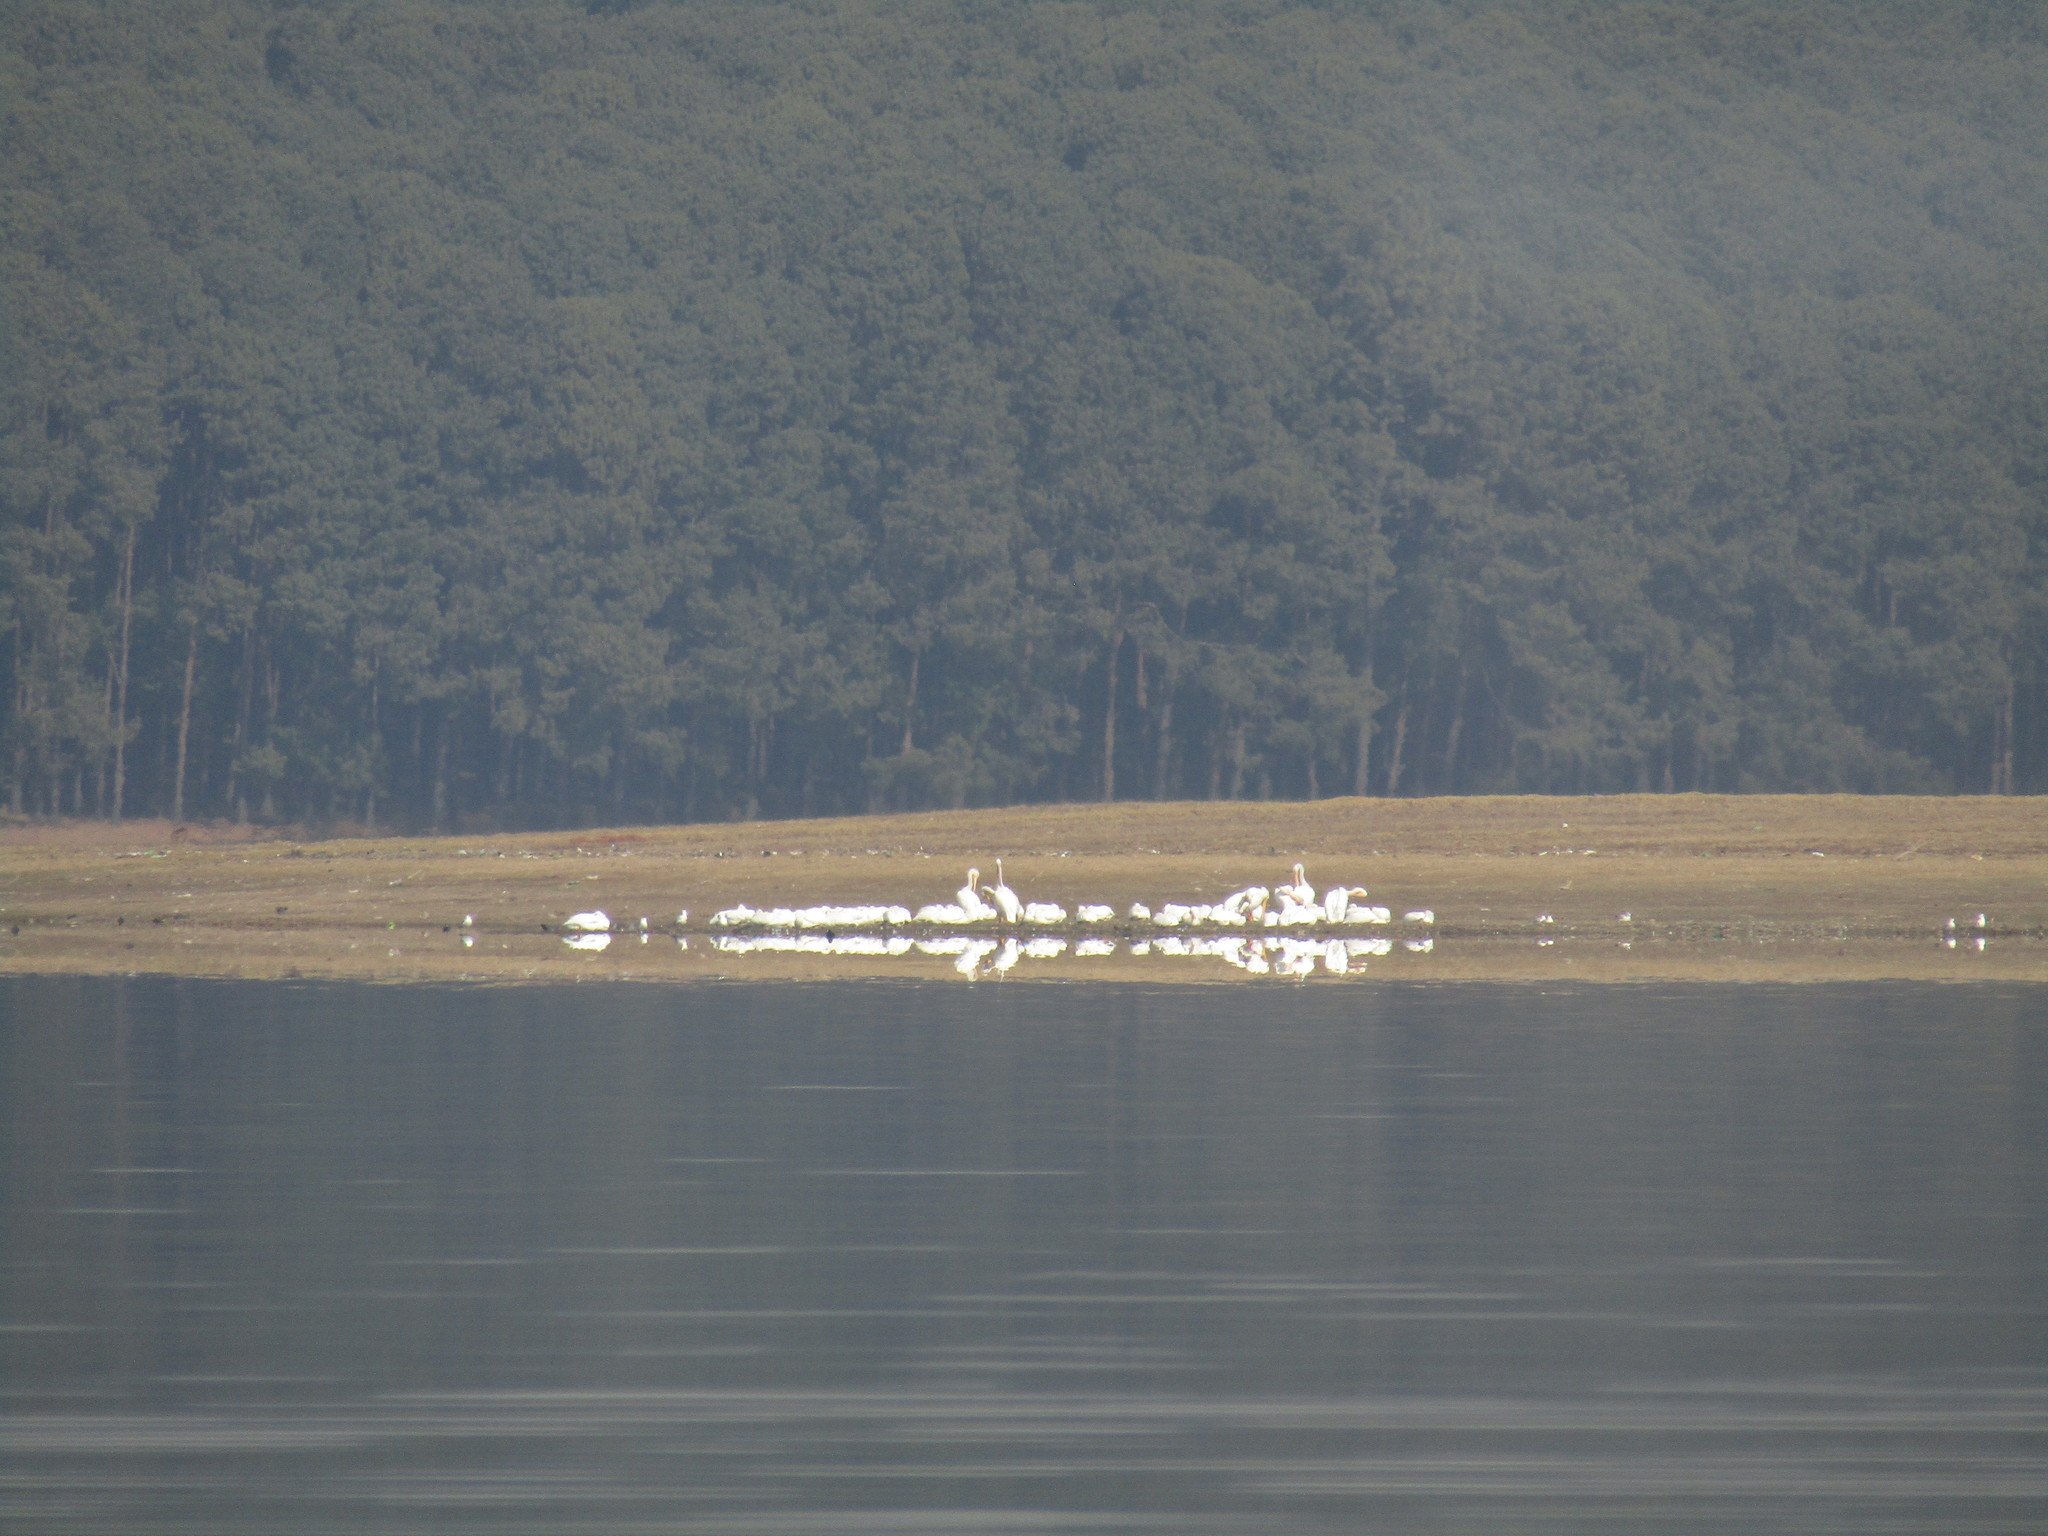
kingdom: Animalia
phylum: Chordata
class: Aves
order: Pelecaniformes
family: Pelecanidae
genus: Pelecanus
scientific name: Pelecanus erythrorhynchos
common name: American white pelican
